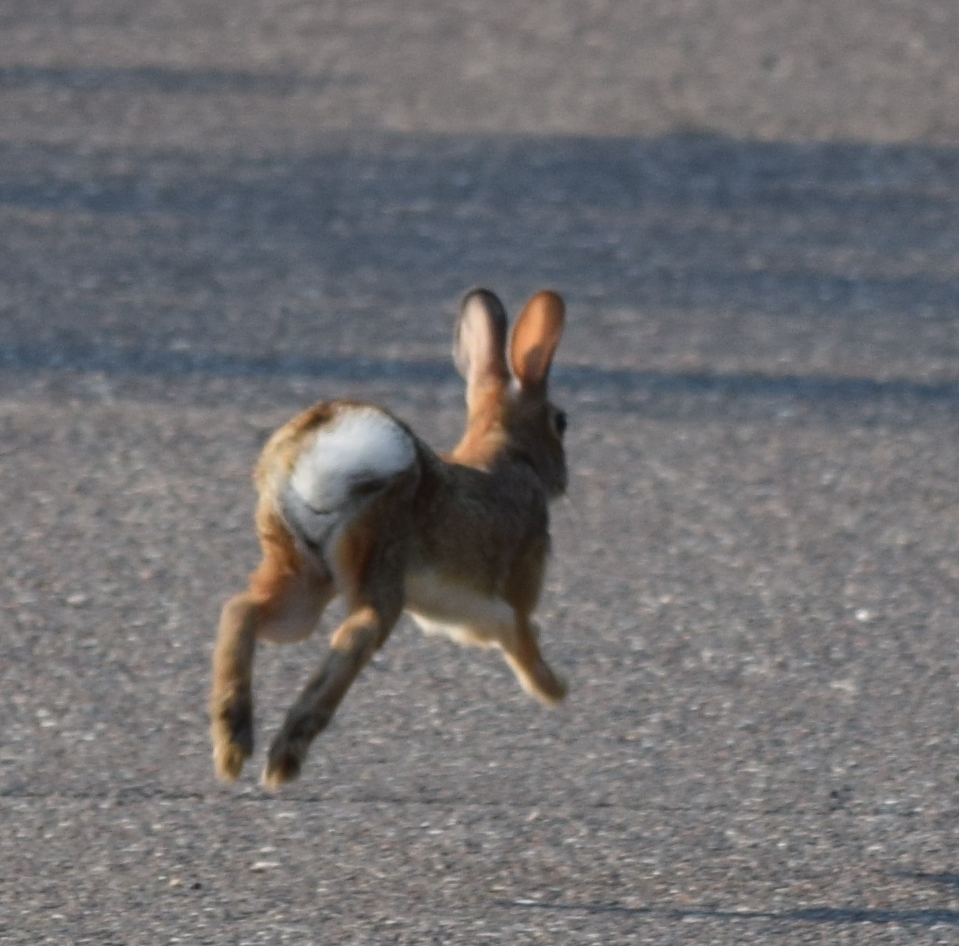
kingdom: Animalia
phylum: Chordata
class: Mammalia
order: Lagomorpha
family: Leporidae
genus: Sylvilagus
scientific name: Sylvilagus floridanus
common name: Eastern cottontail
